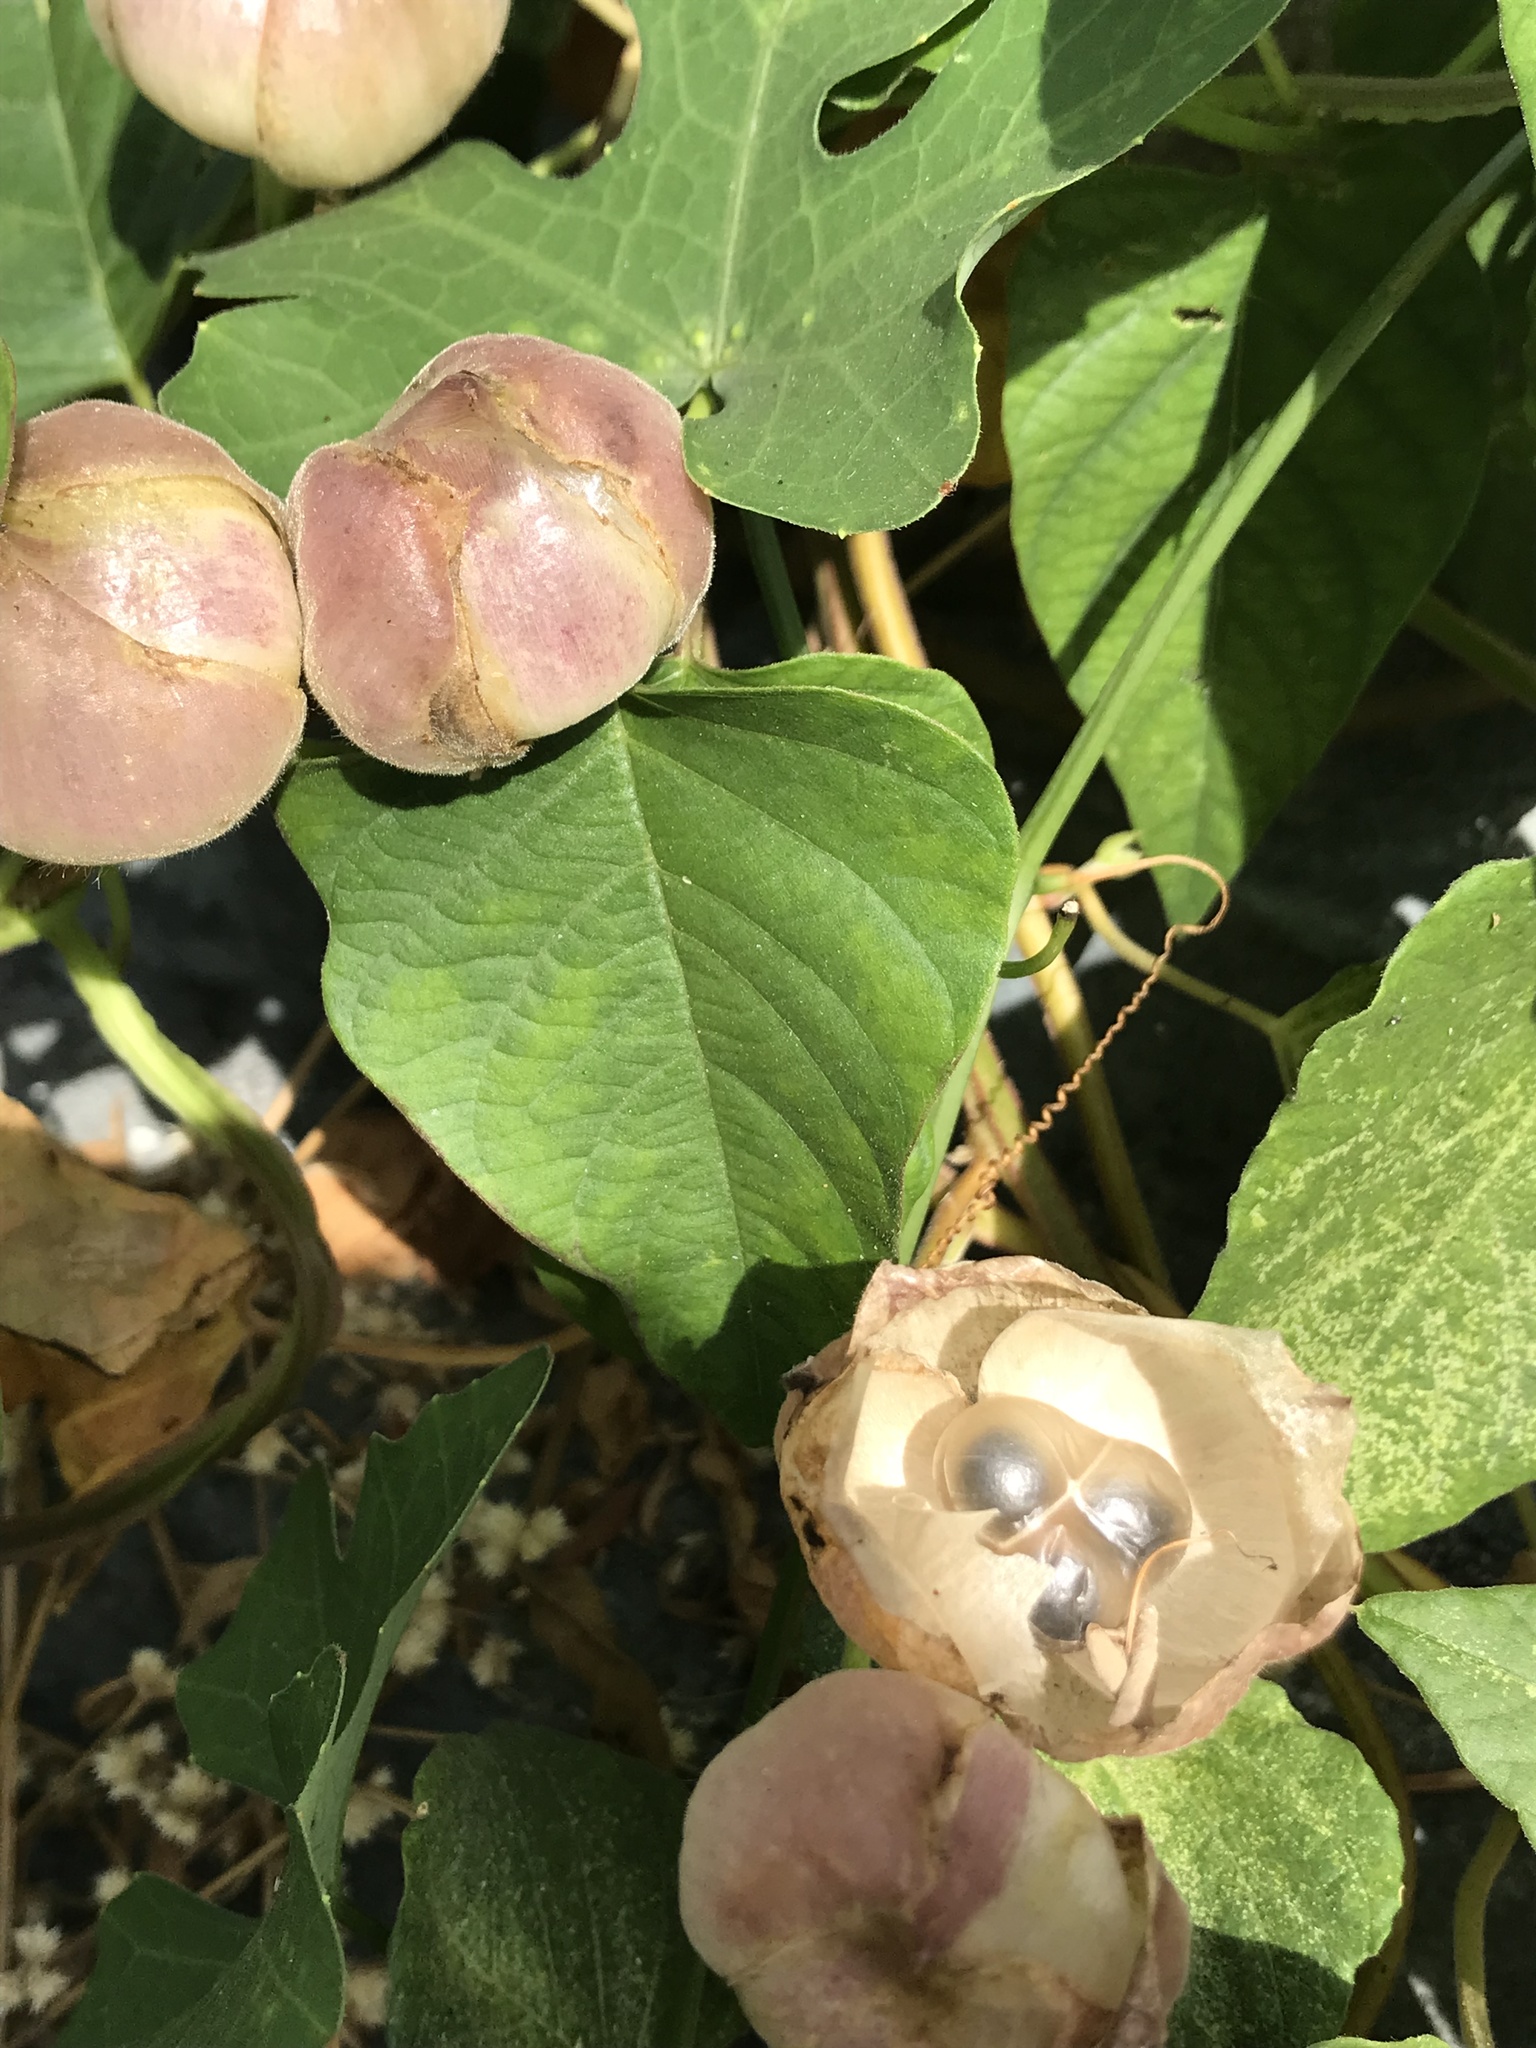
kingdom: Plantae
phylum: Tracheophyta
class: Magnoliopsida
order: Solanales
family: Convolvulaceae
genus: Operculina
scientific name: Operculina turpethum
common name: Transparent wood-rose
